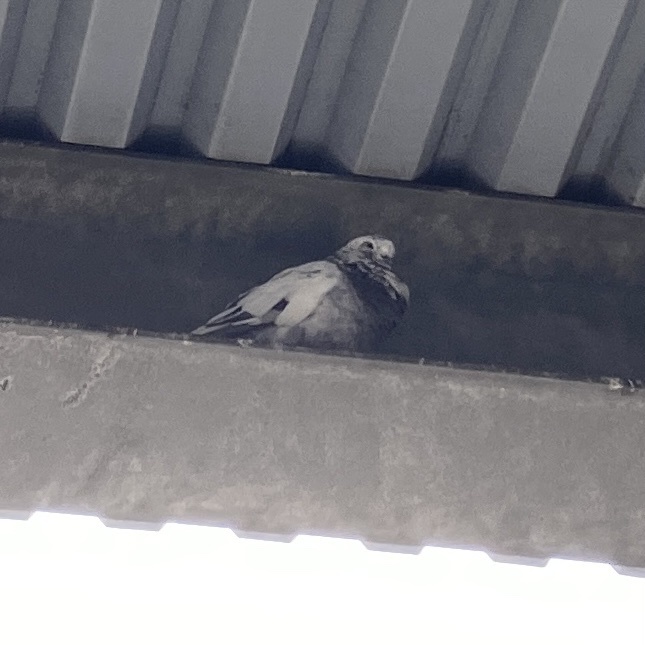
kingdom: Animalia
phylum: Chordata
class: Aves
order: Columbiformes
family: Columbidae
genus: Columba
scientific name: Columba livia
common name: Rock pigeon
